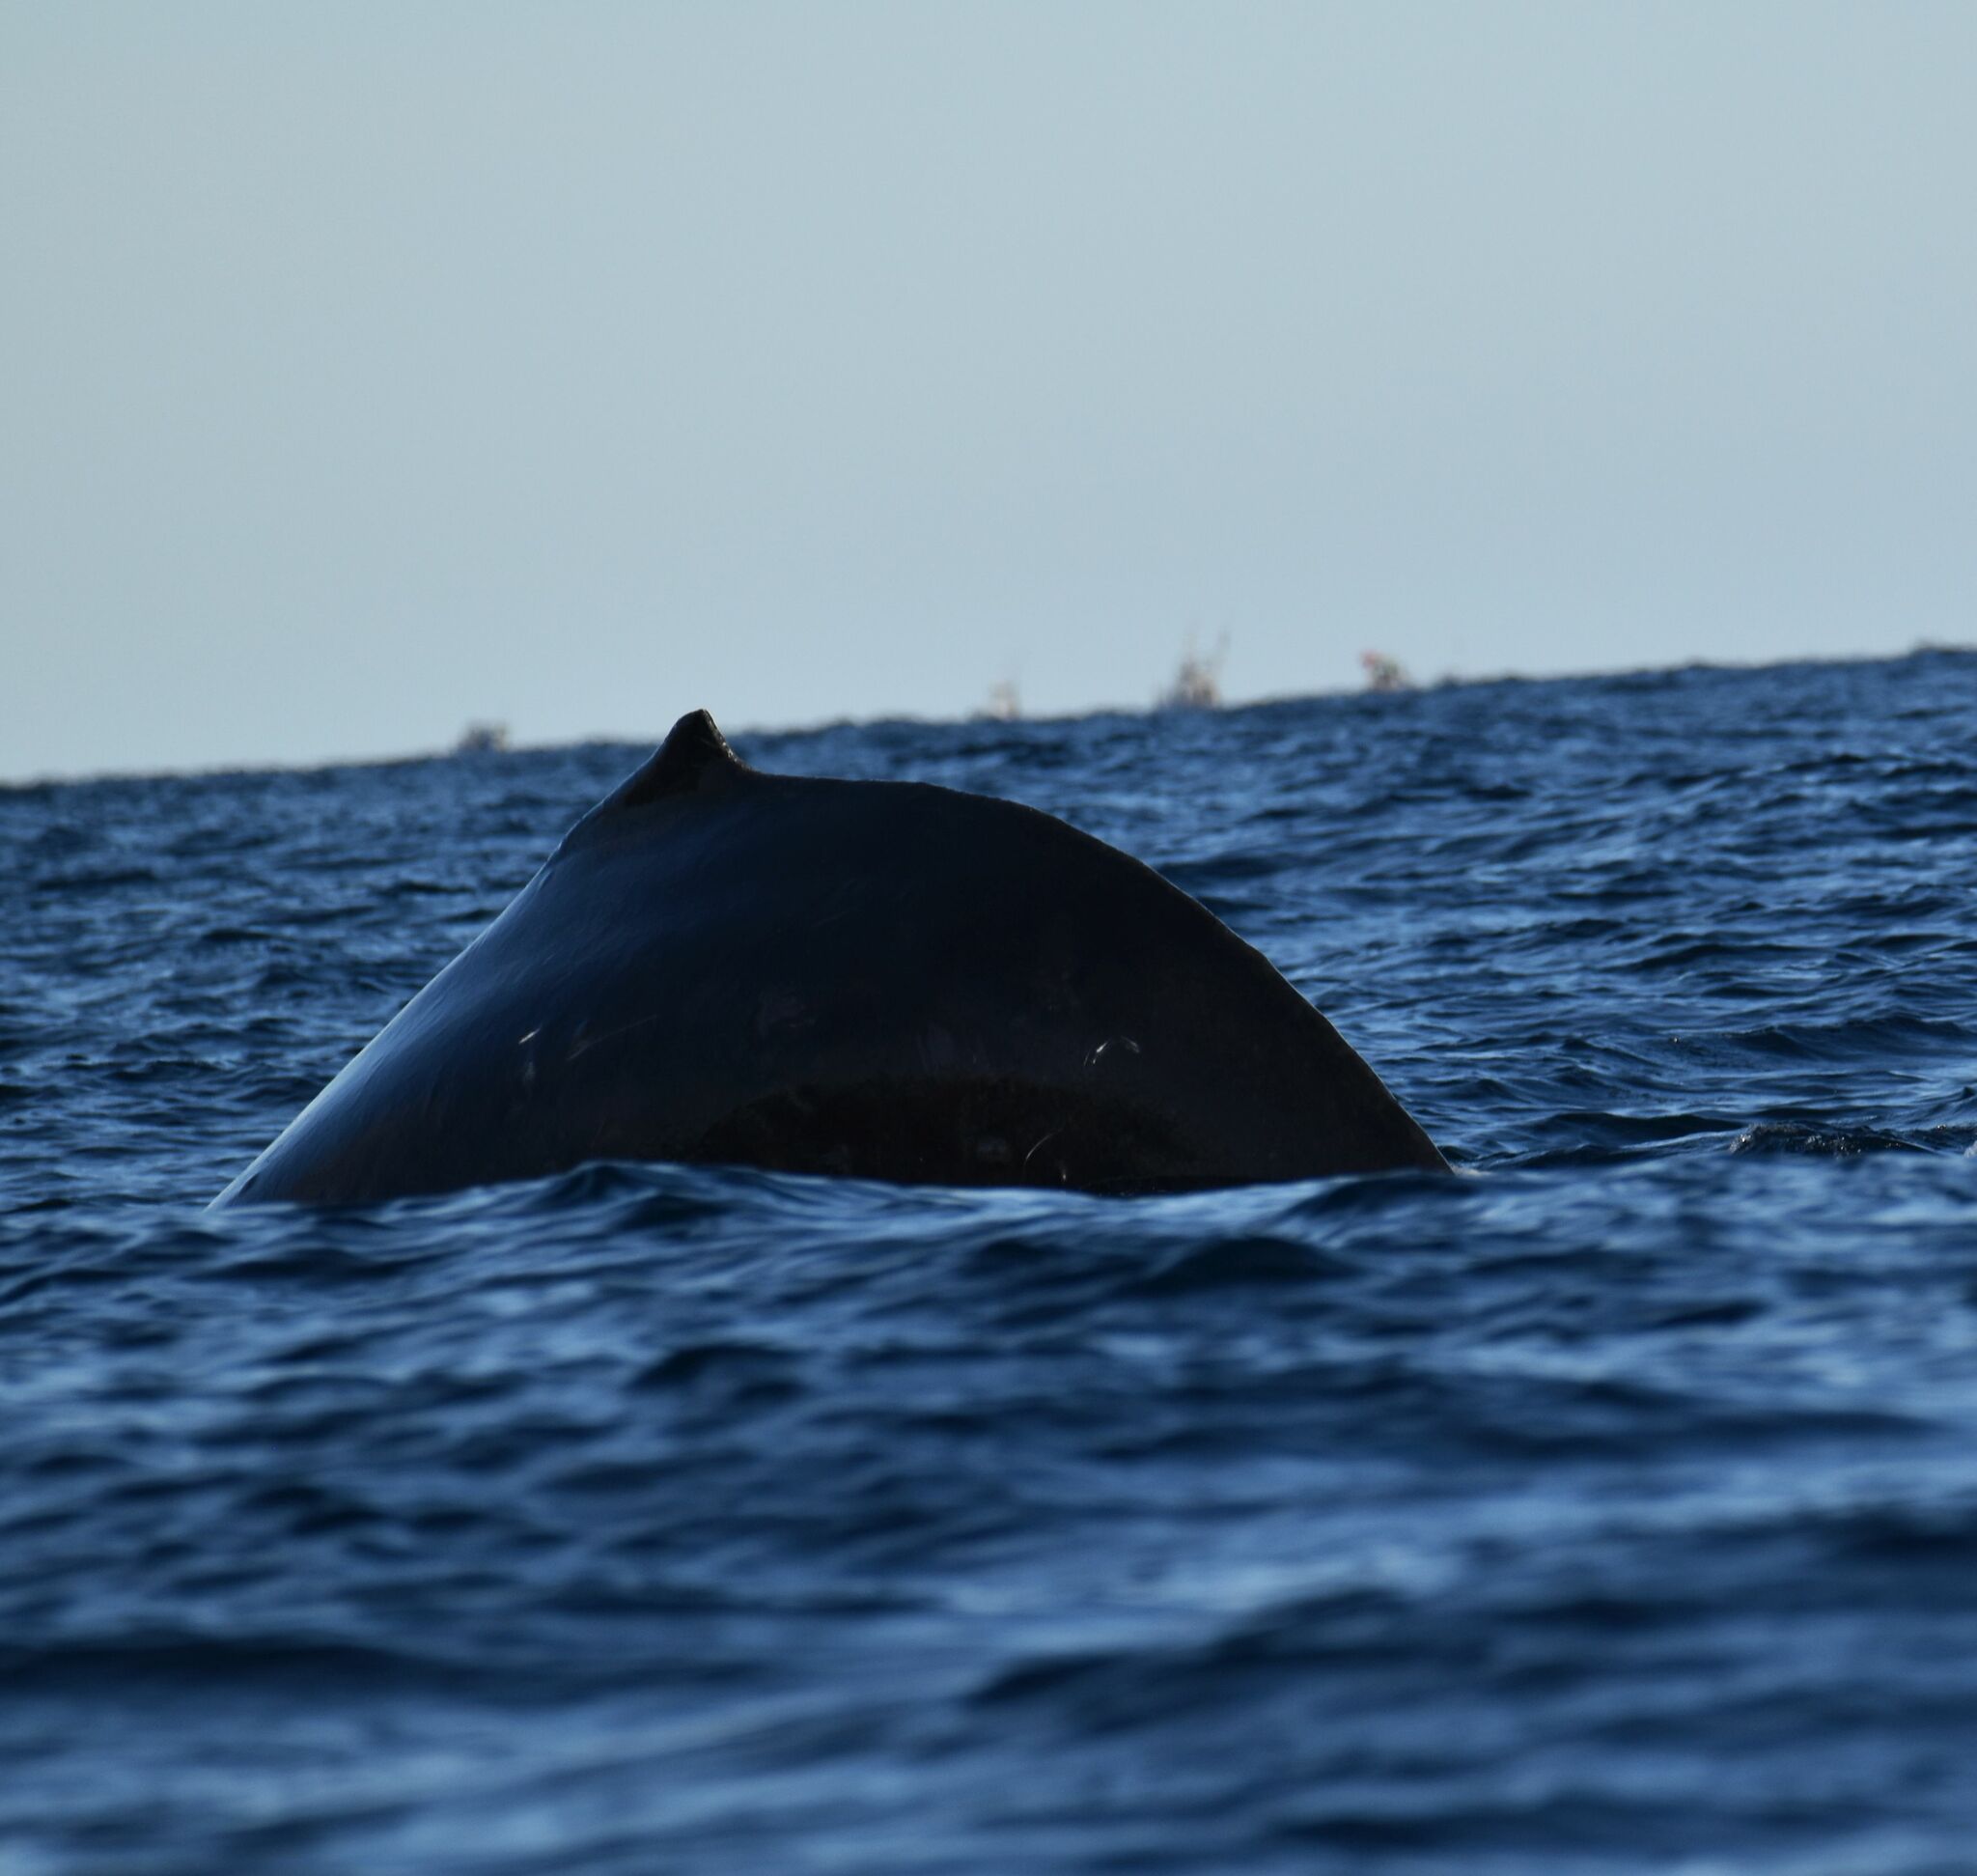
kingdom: Animalia
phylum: Chordata
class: Mammalia
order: Cetacea
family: Balaenopteridae
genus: Megaptera
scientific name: Megaptera novaeangliae
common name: Humpback whale
